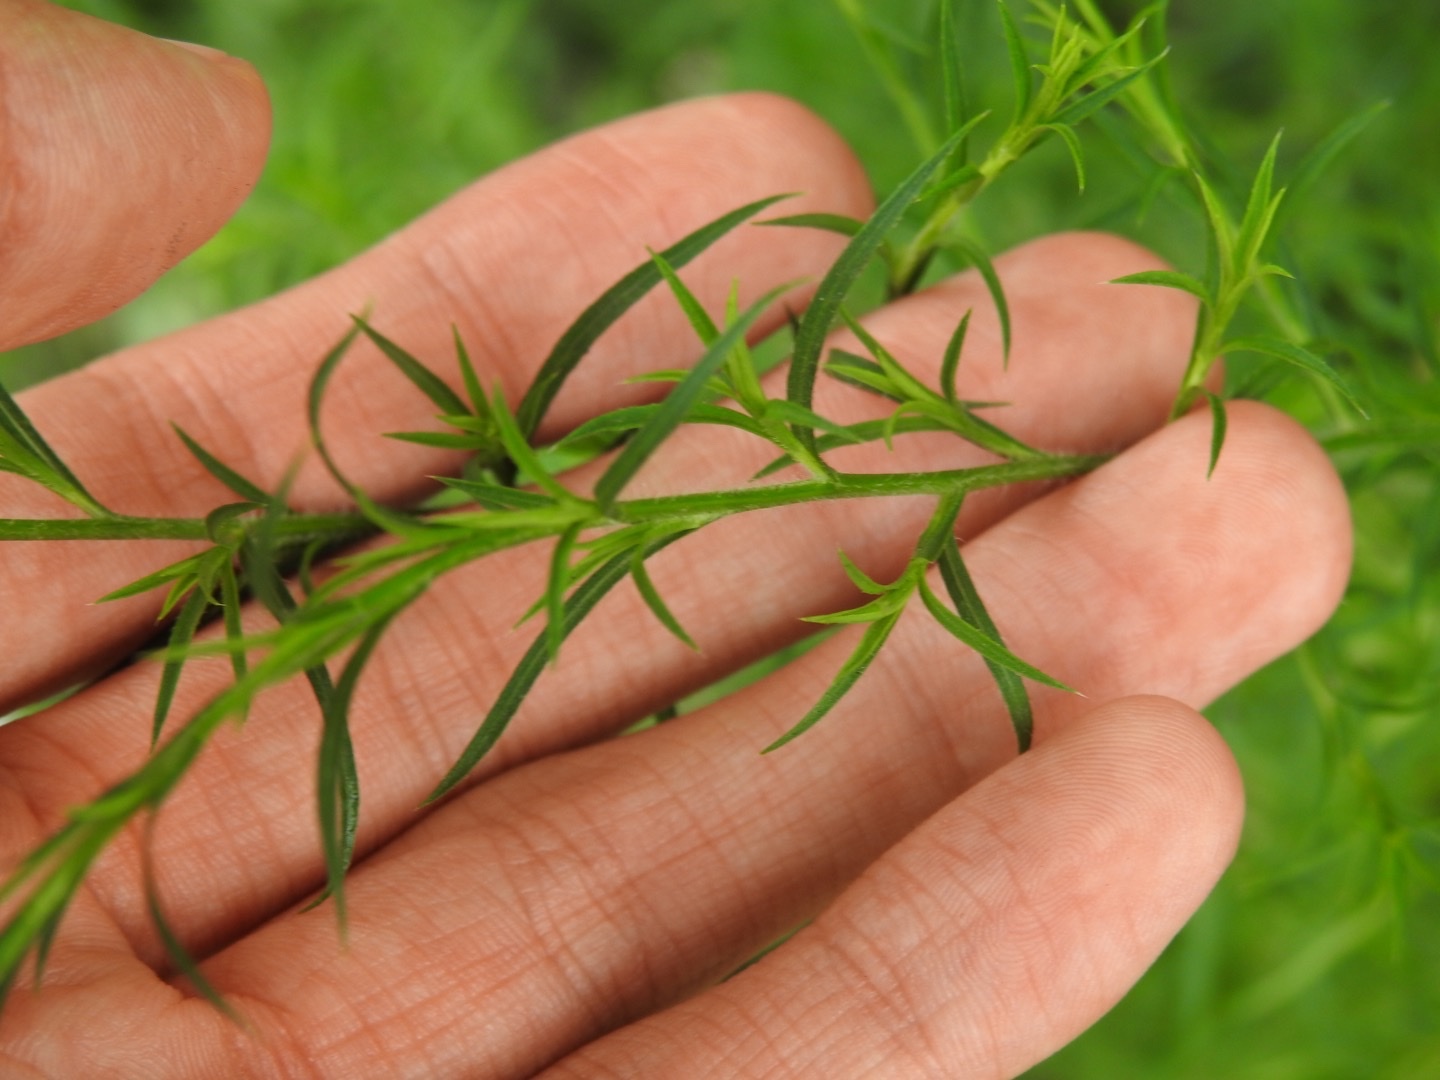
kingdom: Plantae
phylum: Tracheophyta
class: Magnoliopsida
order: Asterales
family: Asteraceae
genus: Symphyotrichum
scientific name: Symphyotrichum pilosum
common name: Awl aster
